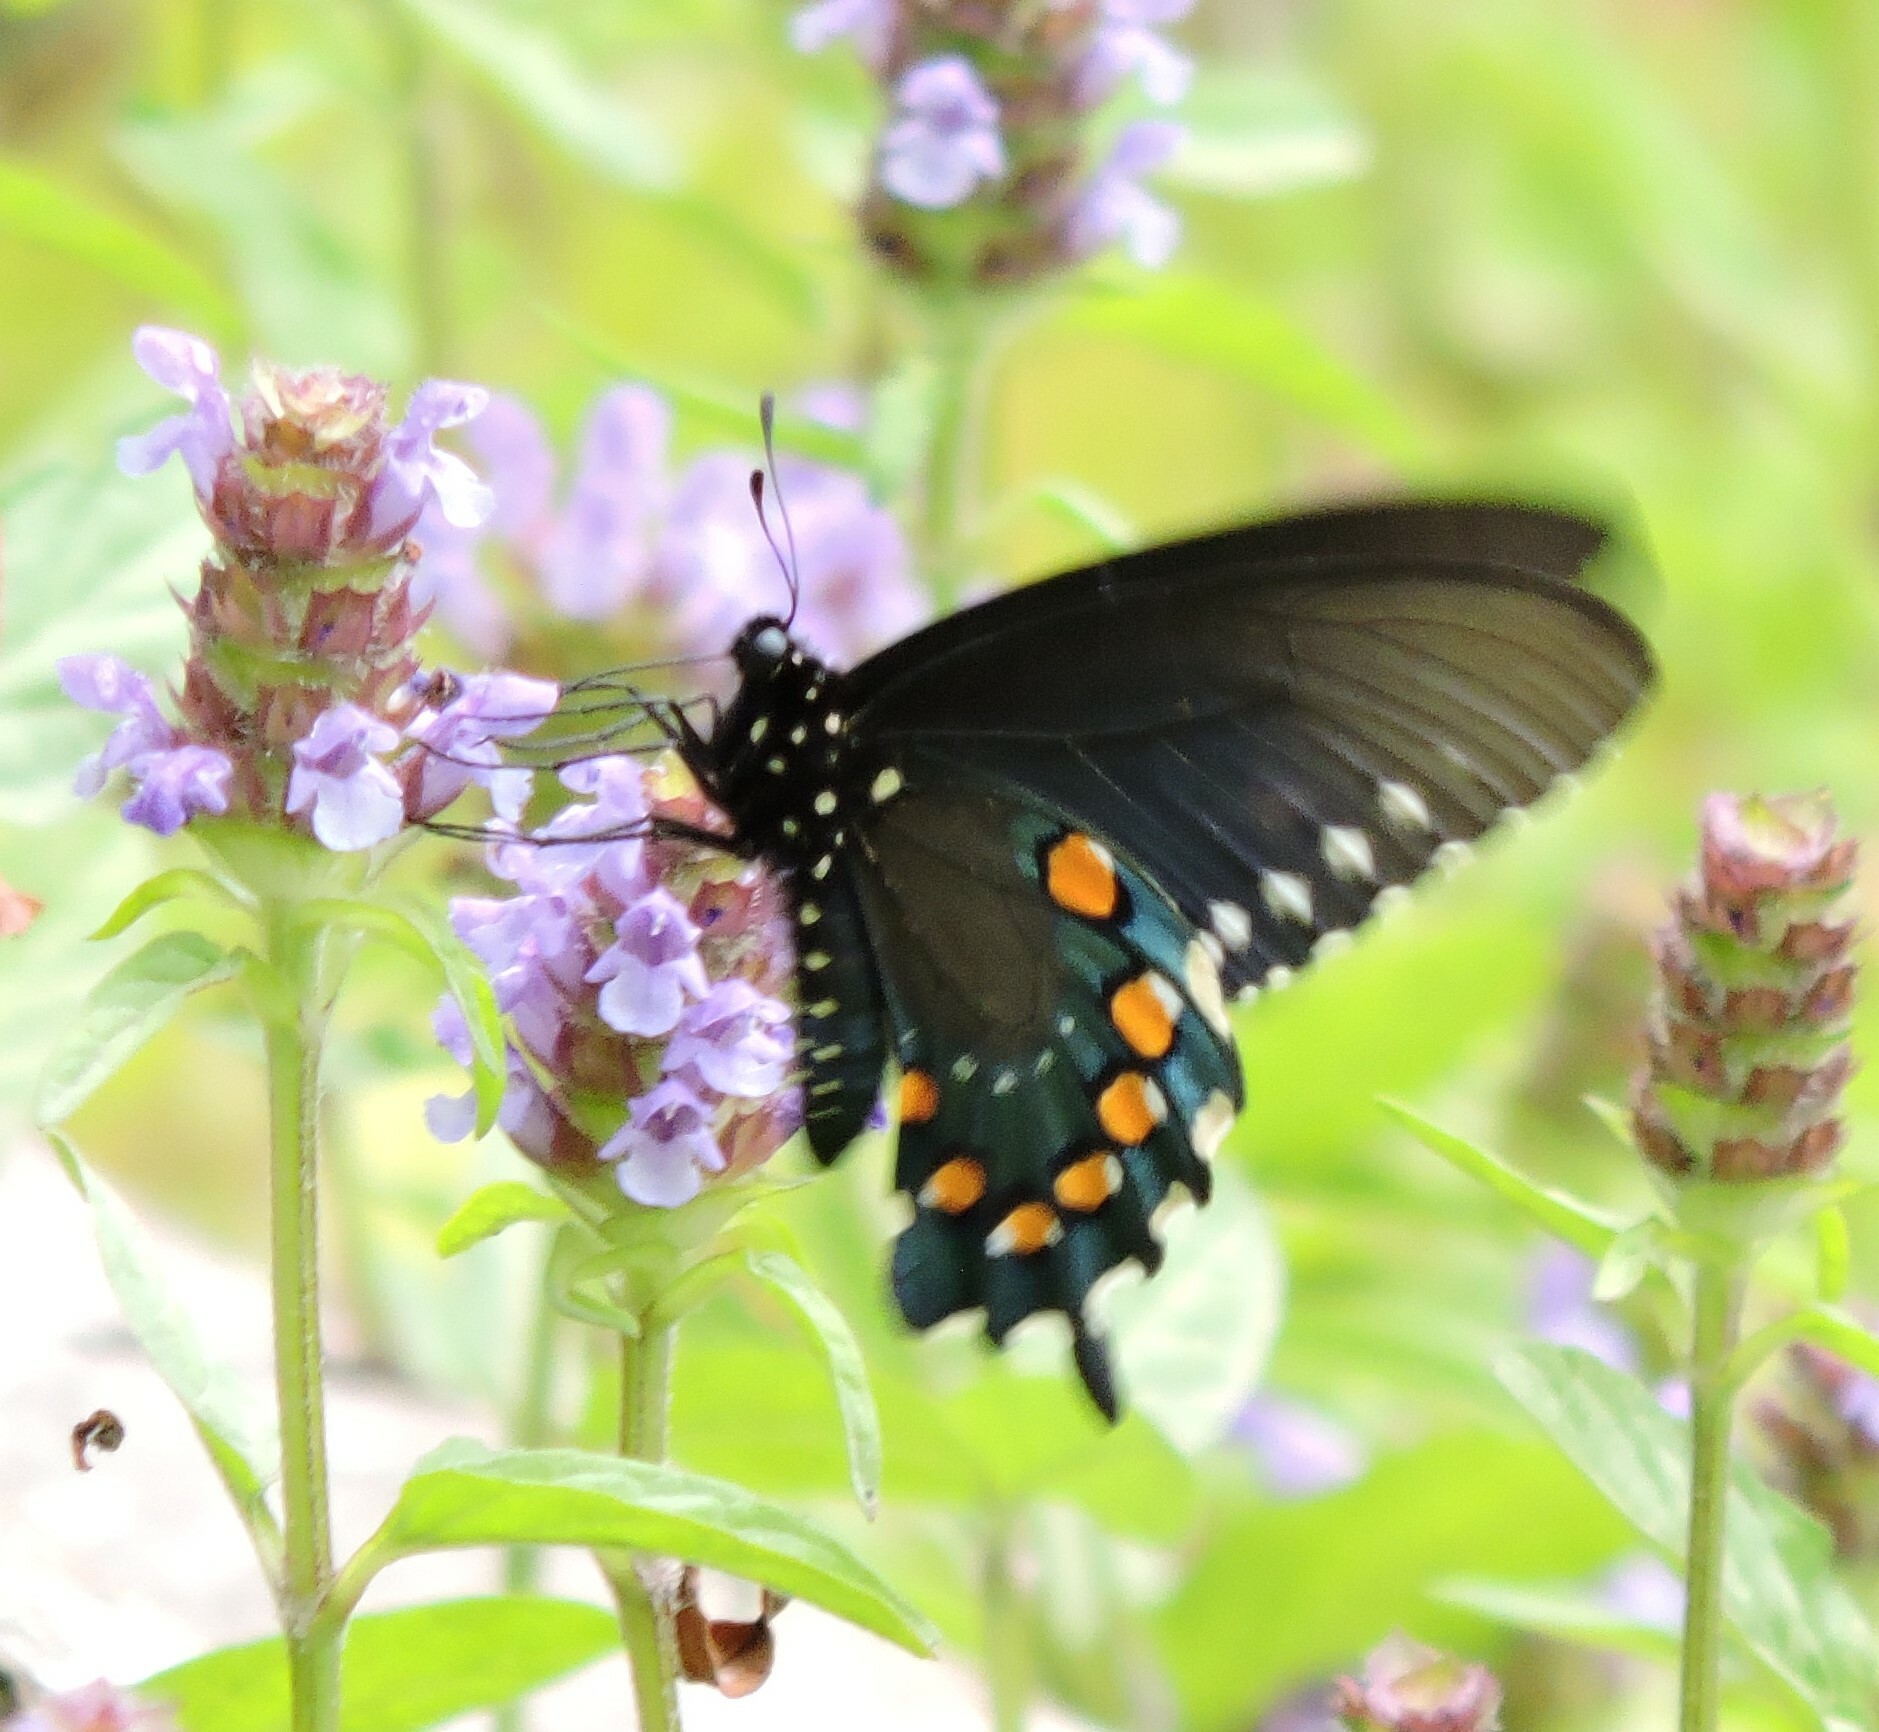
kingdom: Animalia
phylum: Arthropoda
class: Insecta
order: Lepidoptera
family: Papilionidae
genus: Battus
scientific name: Battus philenor
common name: Pipevine swallowtail
